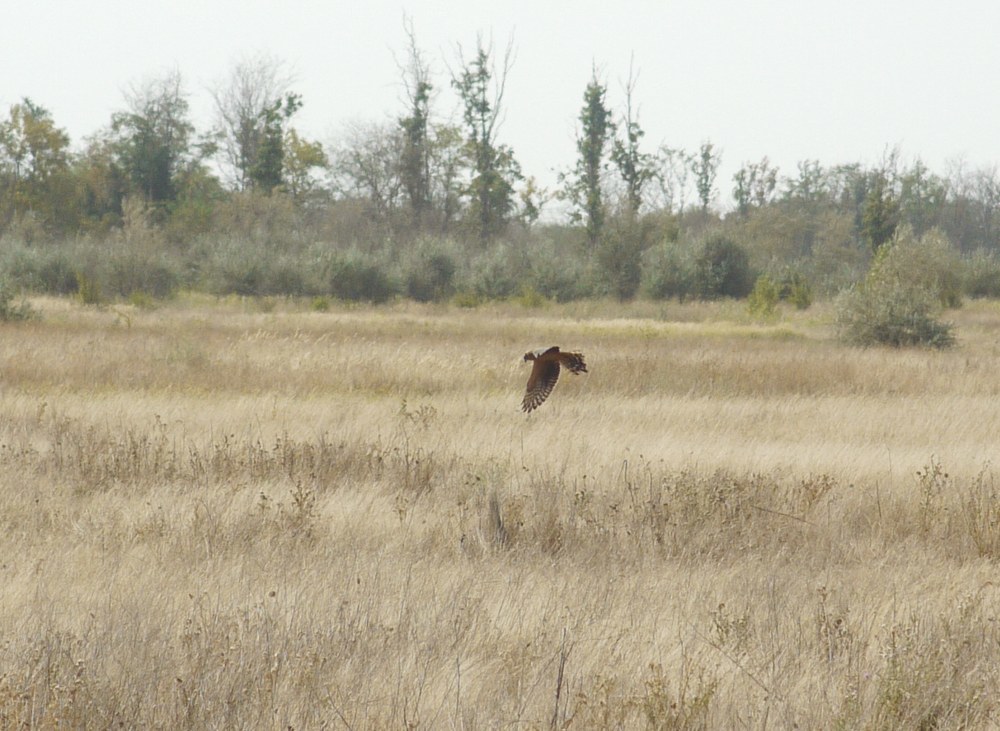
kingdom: Animalia
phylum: Chordata
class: Aves
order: Accipitriformes
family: Accipitridae
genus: Circus
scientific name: Circus macrourus
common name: Pallid harrier
